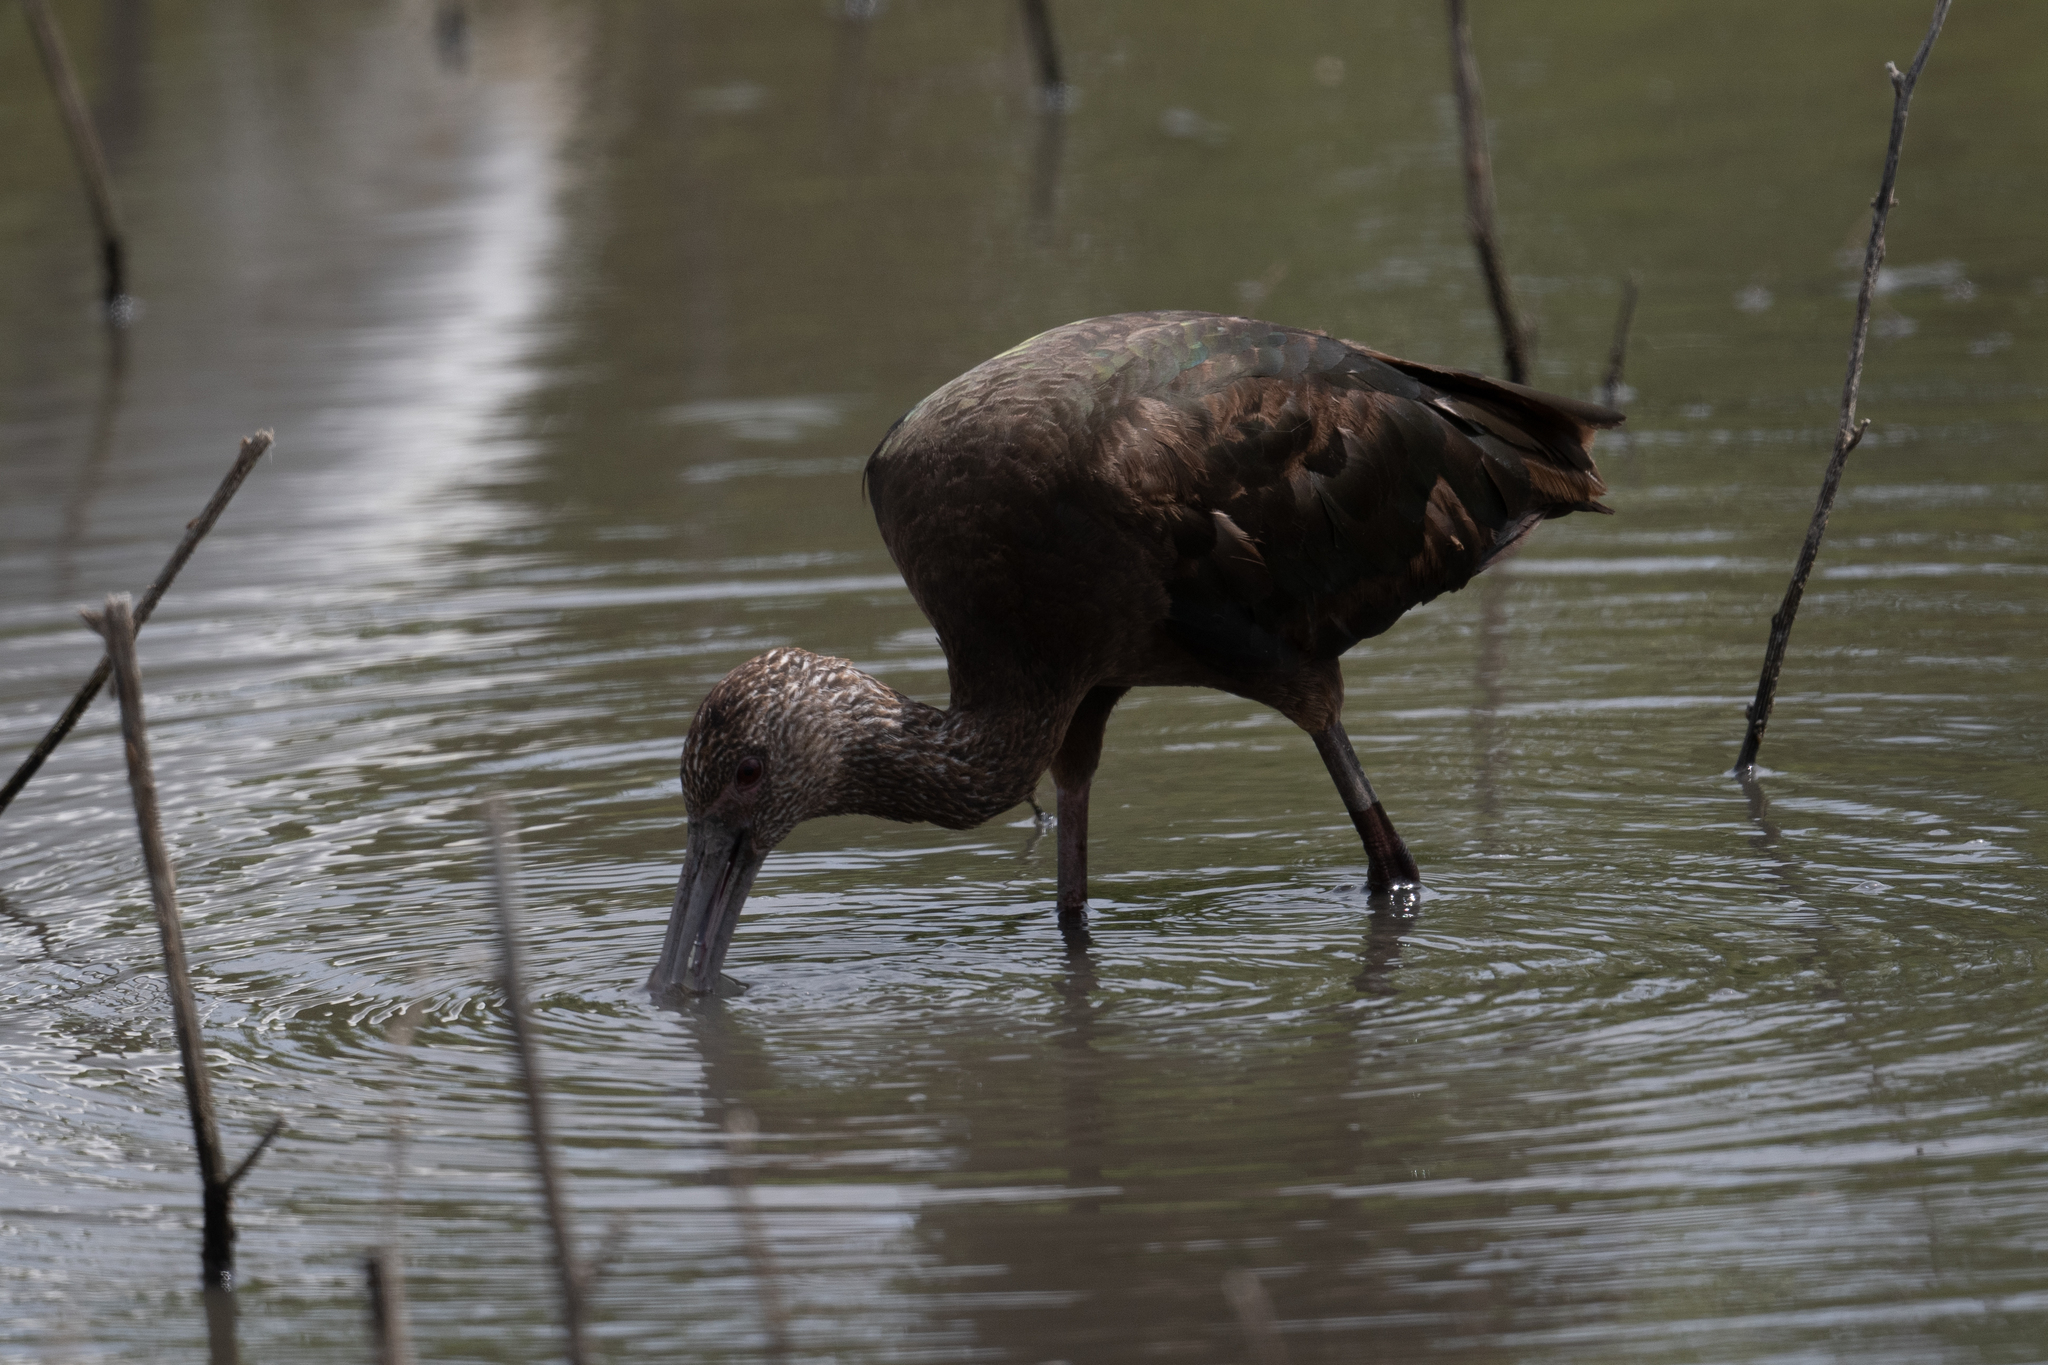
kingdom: Animalia
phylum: Chordata
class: Aves
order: Pelecaniformes
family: Threskiornithidae
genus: Plegadis
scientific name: Plegadis chihi
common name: White-faced ibis
